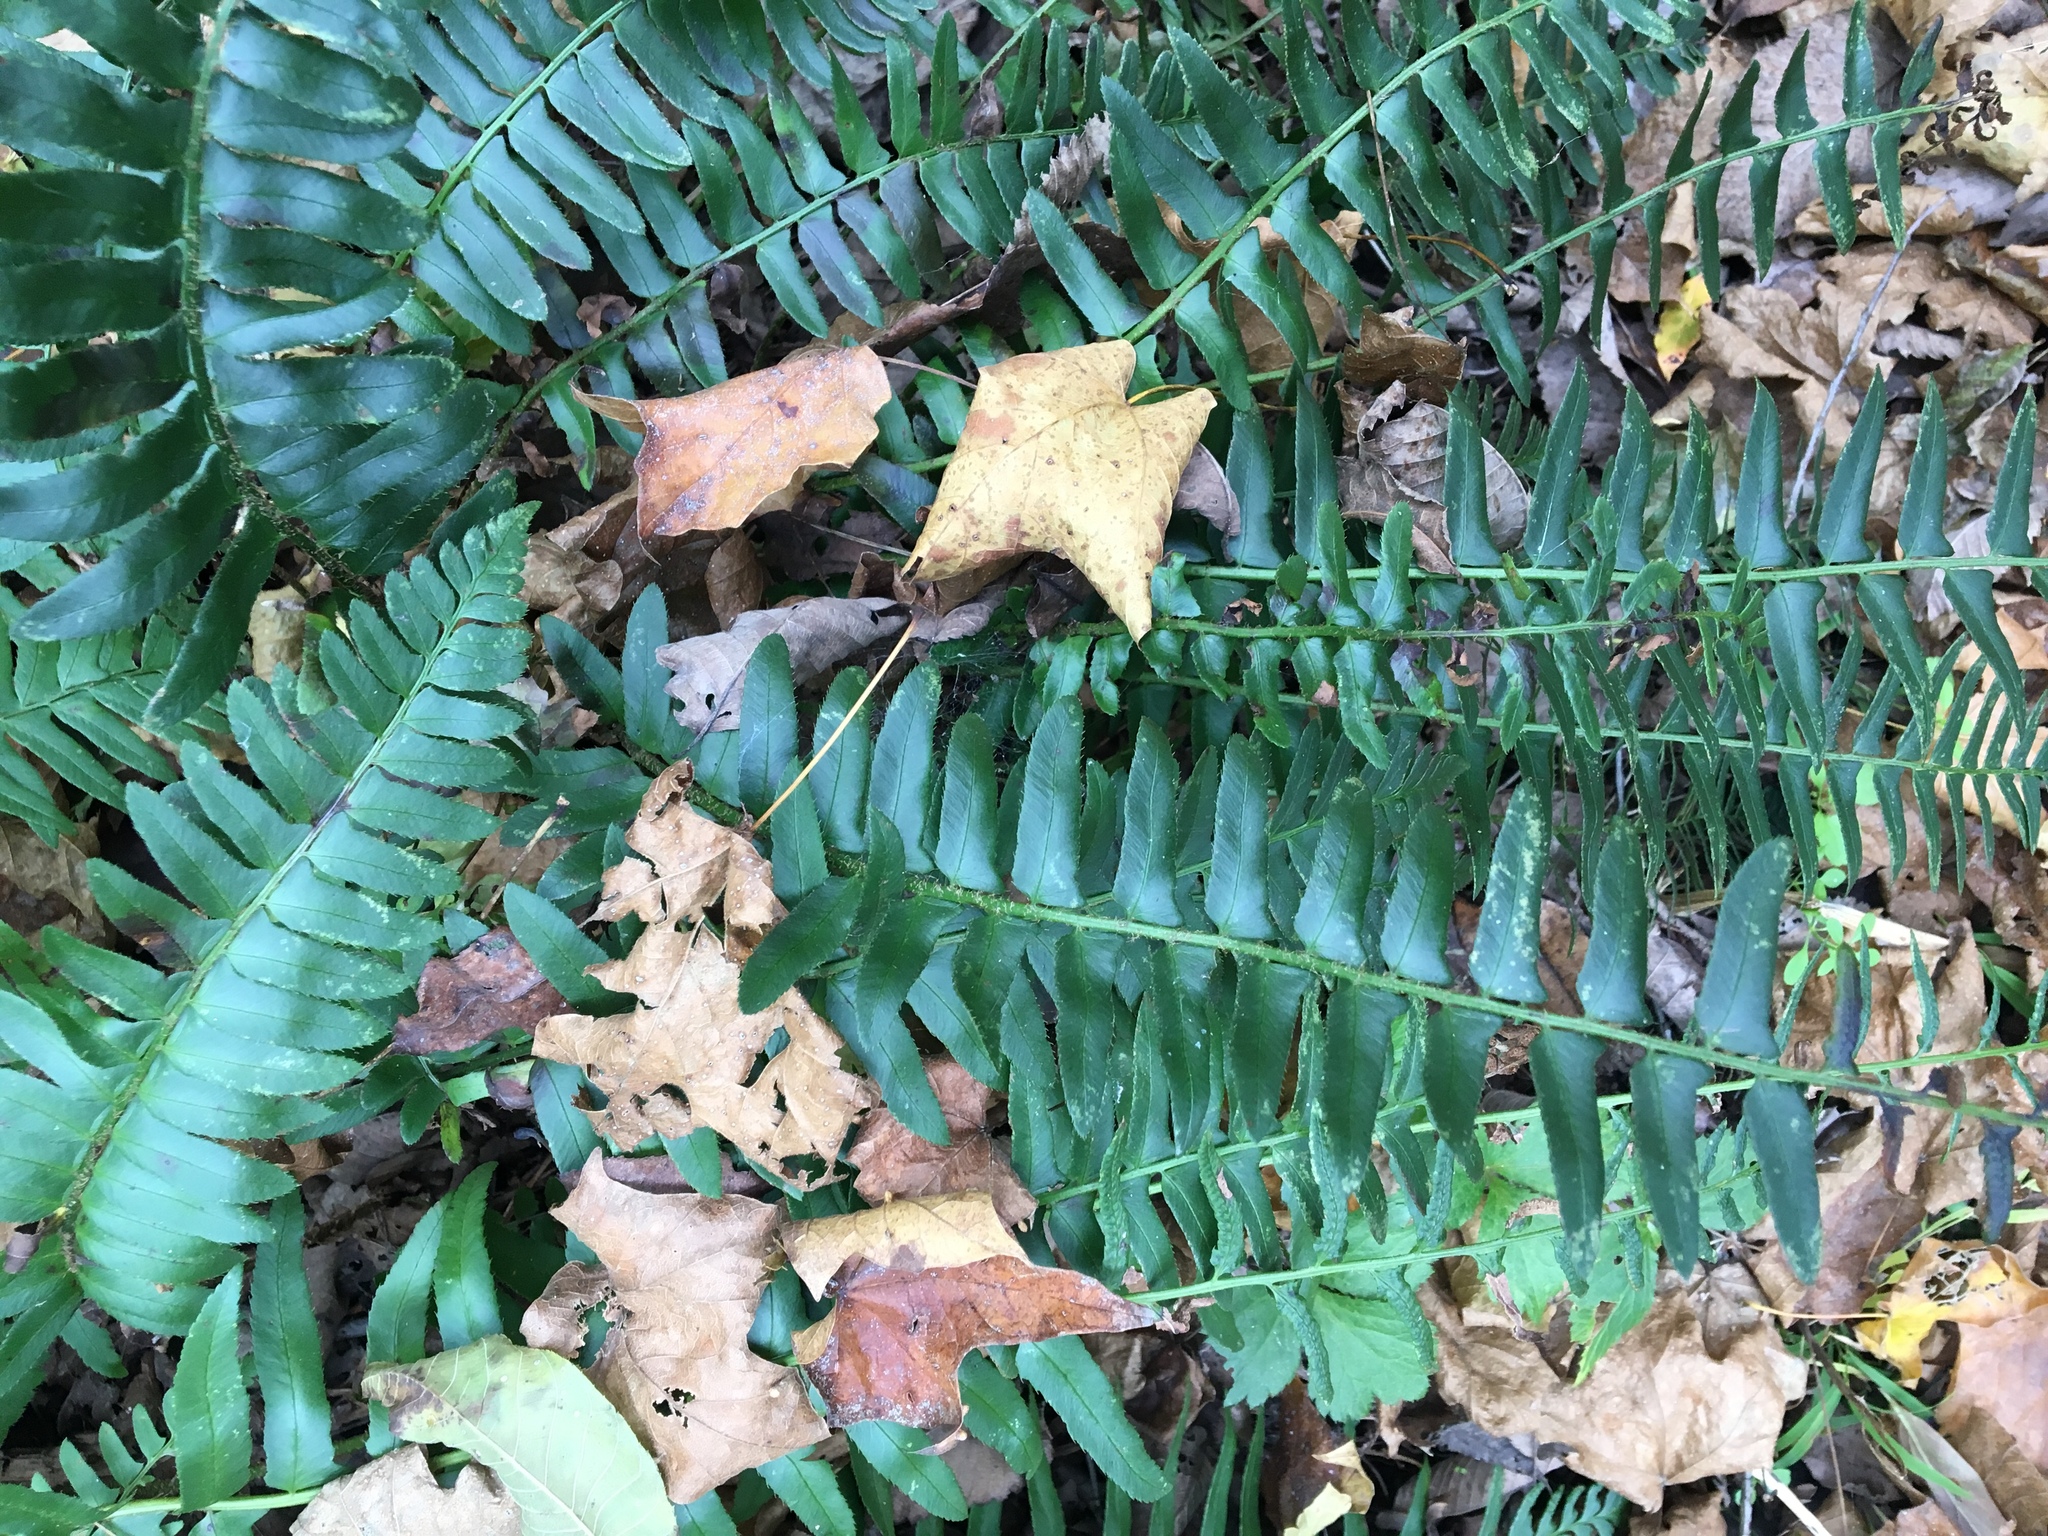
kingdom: Plantae
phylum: Tracheophyta
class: Polypodiopsida
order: Polypodiales
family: Dryopteridaceae
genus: Polystichum
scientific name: Polystichum acrostichoides
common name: Christmas fern
